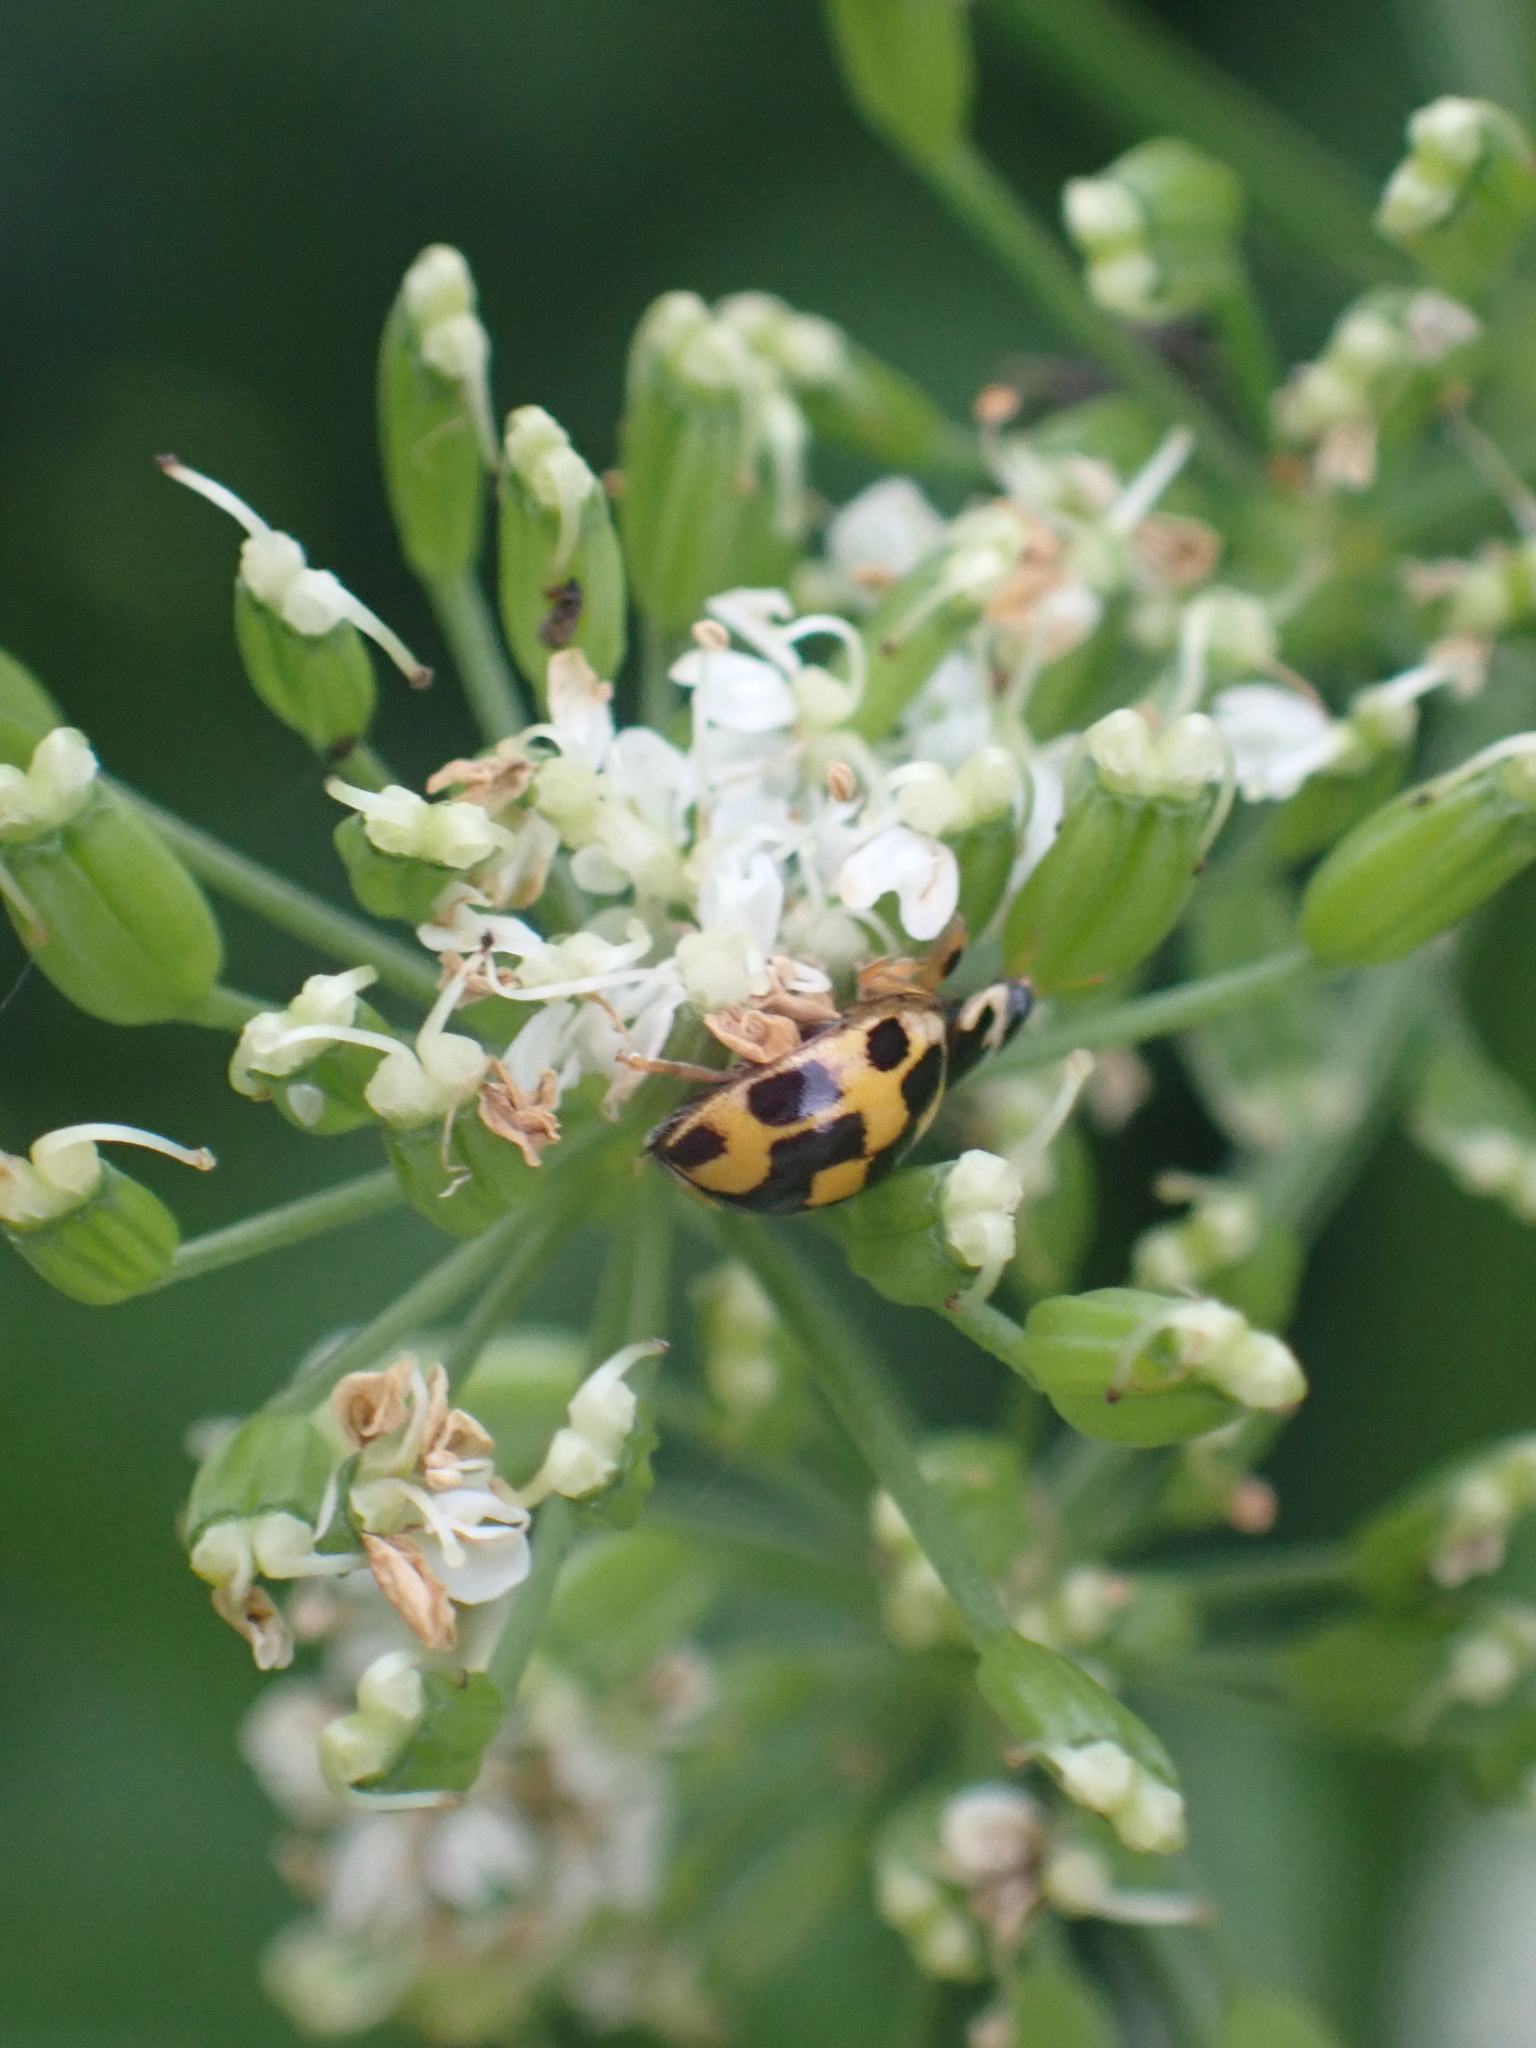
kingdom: Animalia
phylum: Arthropoda
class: Insecta
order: Coleoptera
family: Coccinellidae
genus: Propylaea
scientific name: Propylaea quatuordecimpunctata
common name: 14-spotted ladybird beetle
